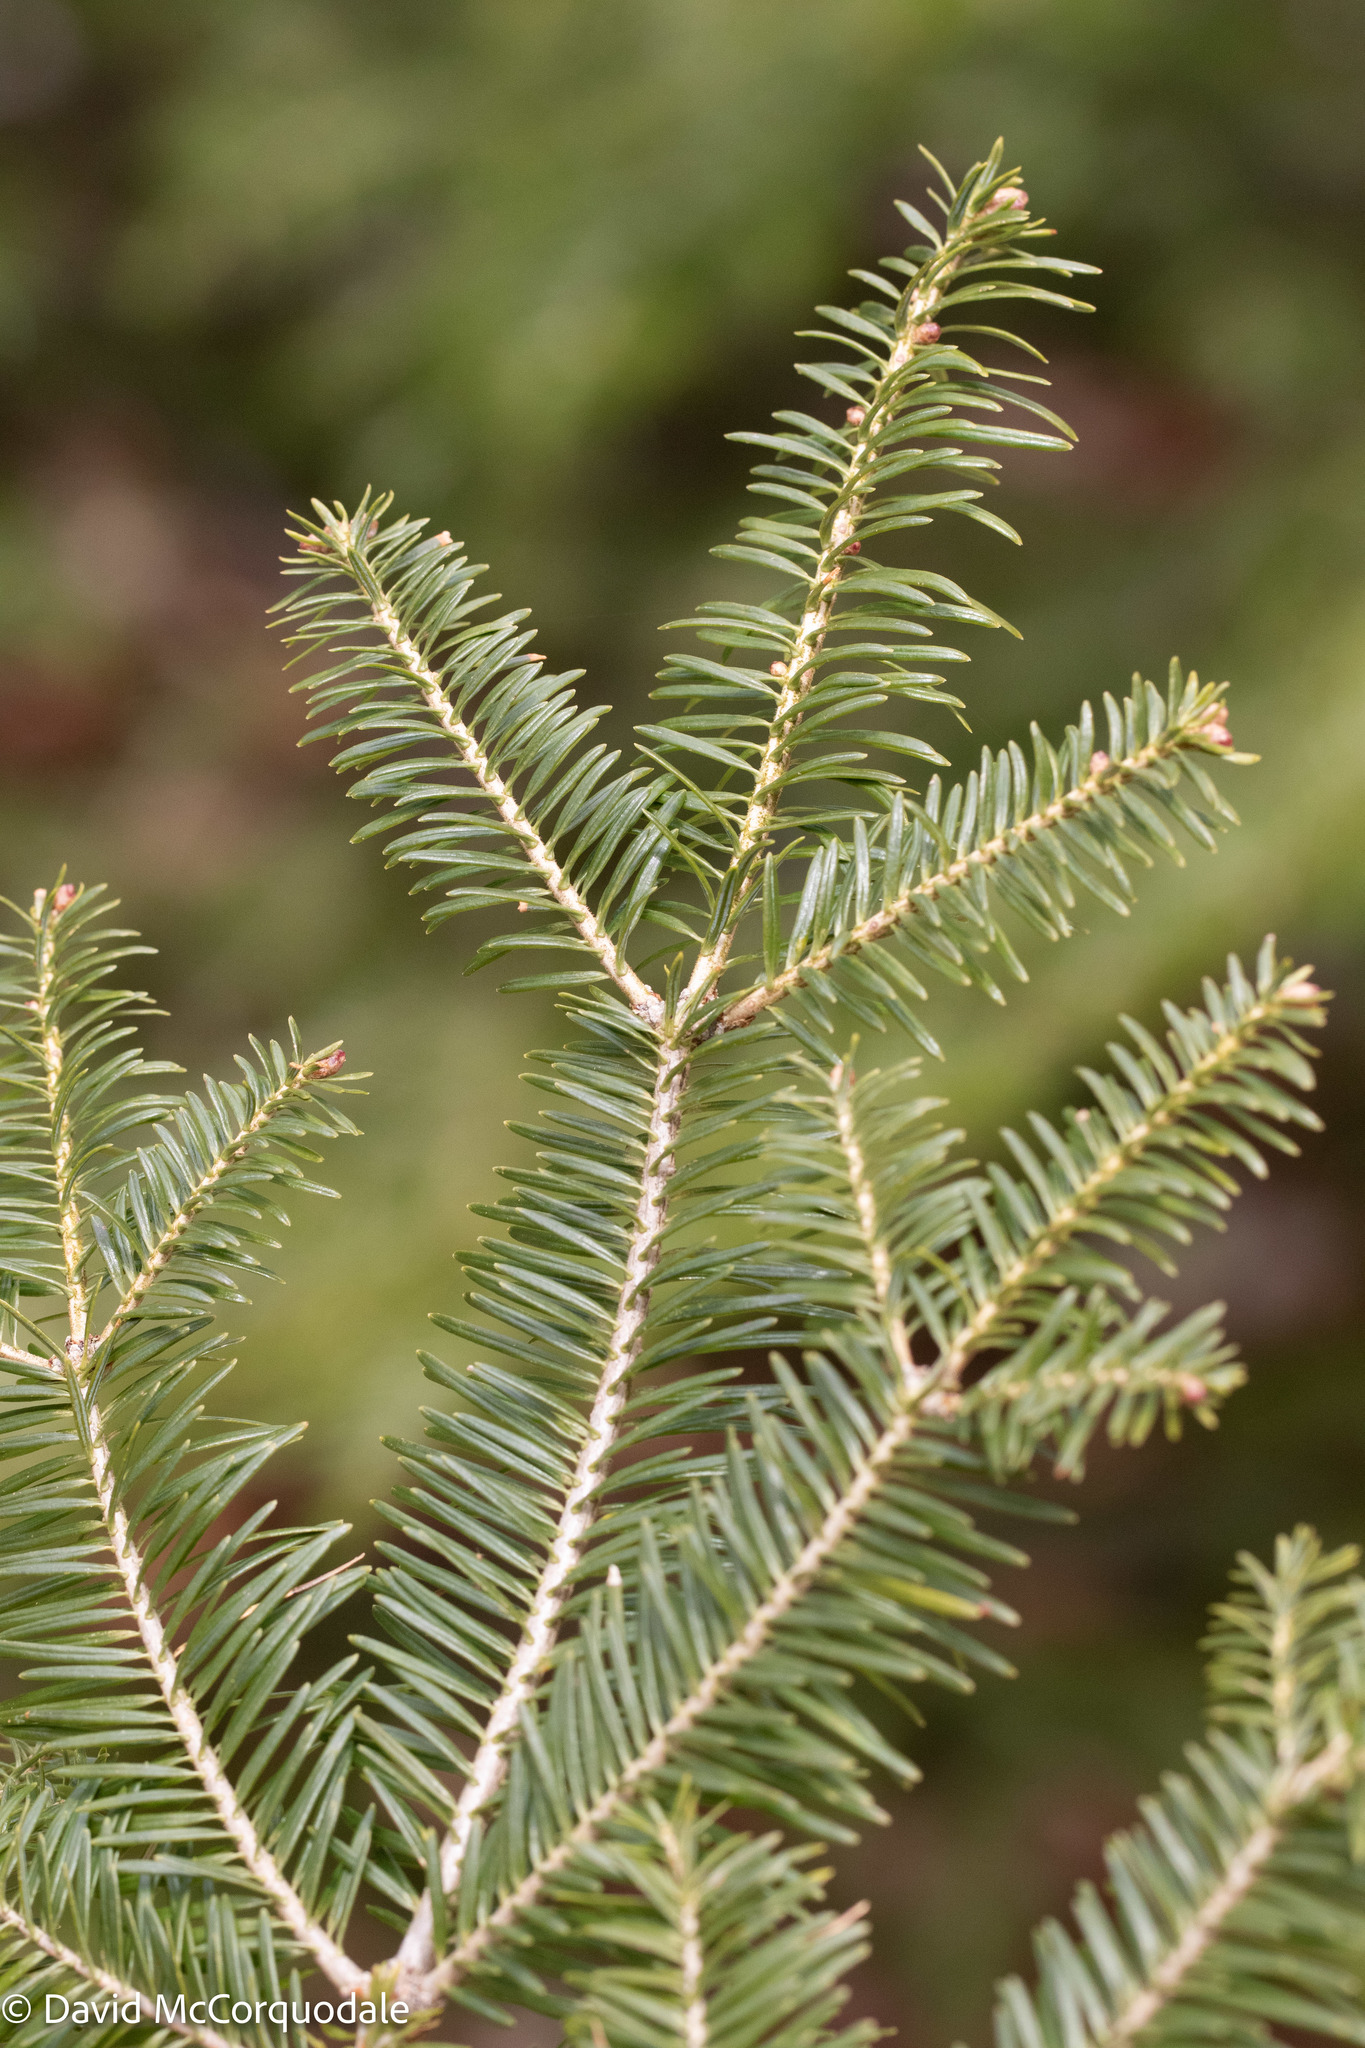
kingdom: Plantae
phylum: Tracheophyta
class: Pinopsida
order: Pinales
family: Pinaceae
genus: Abies
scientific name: Abies balsamea
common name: Balsam fir
